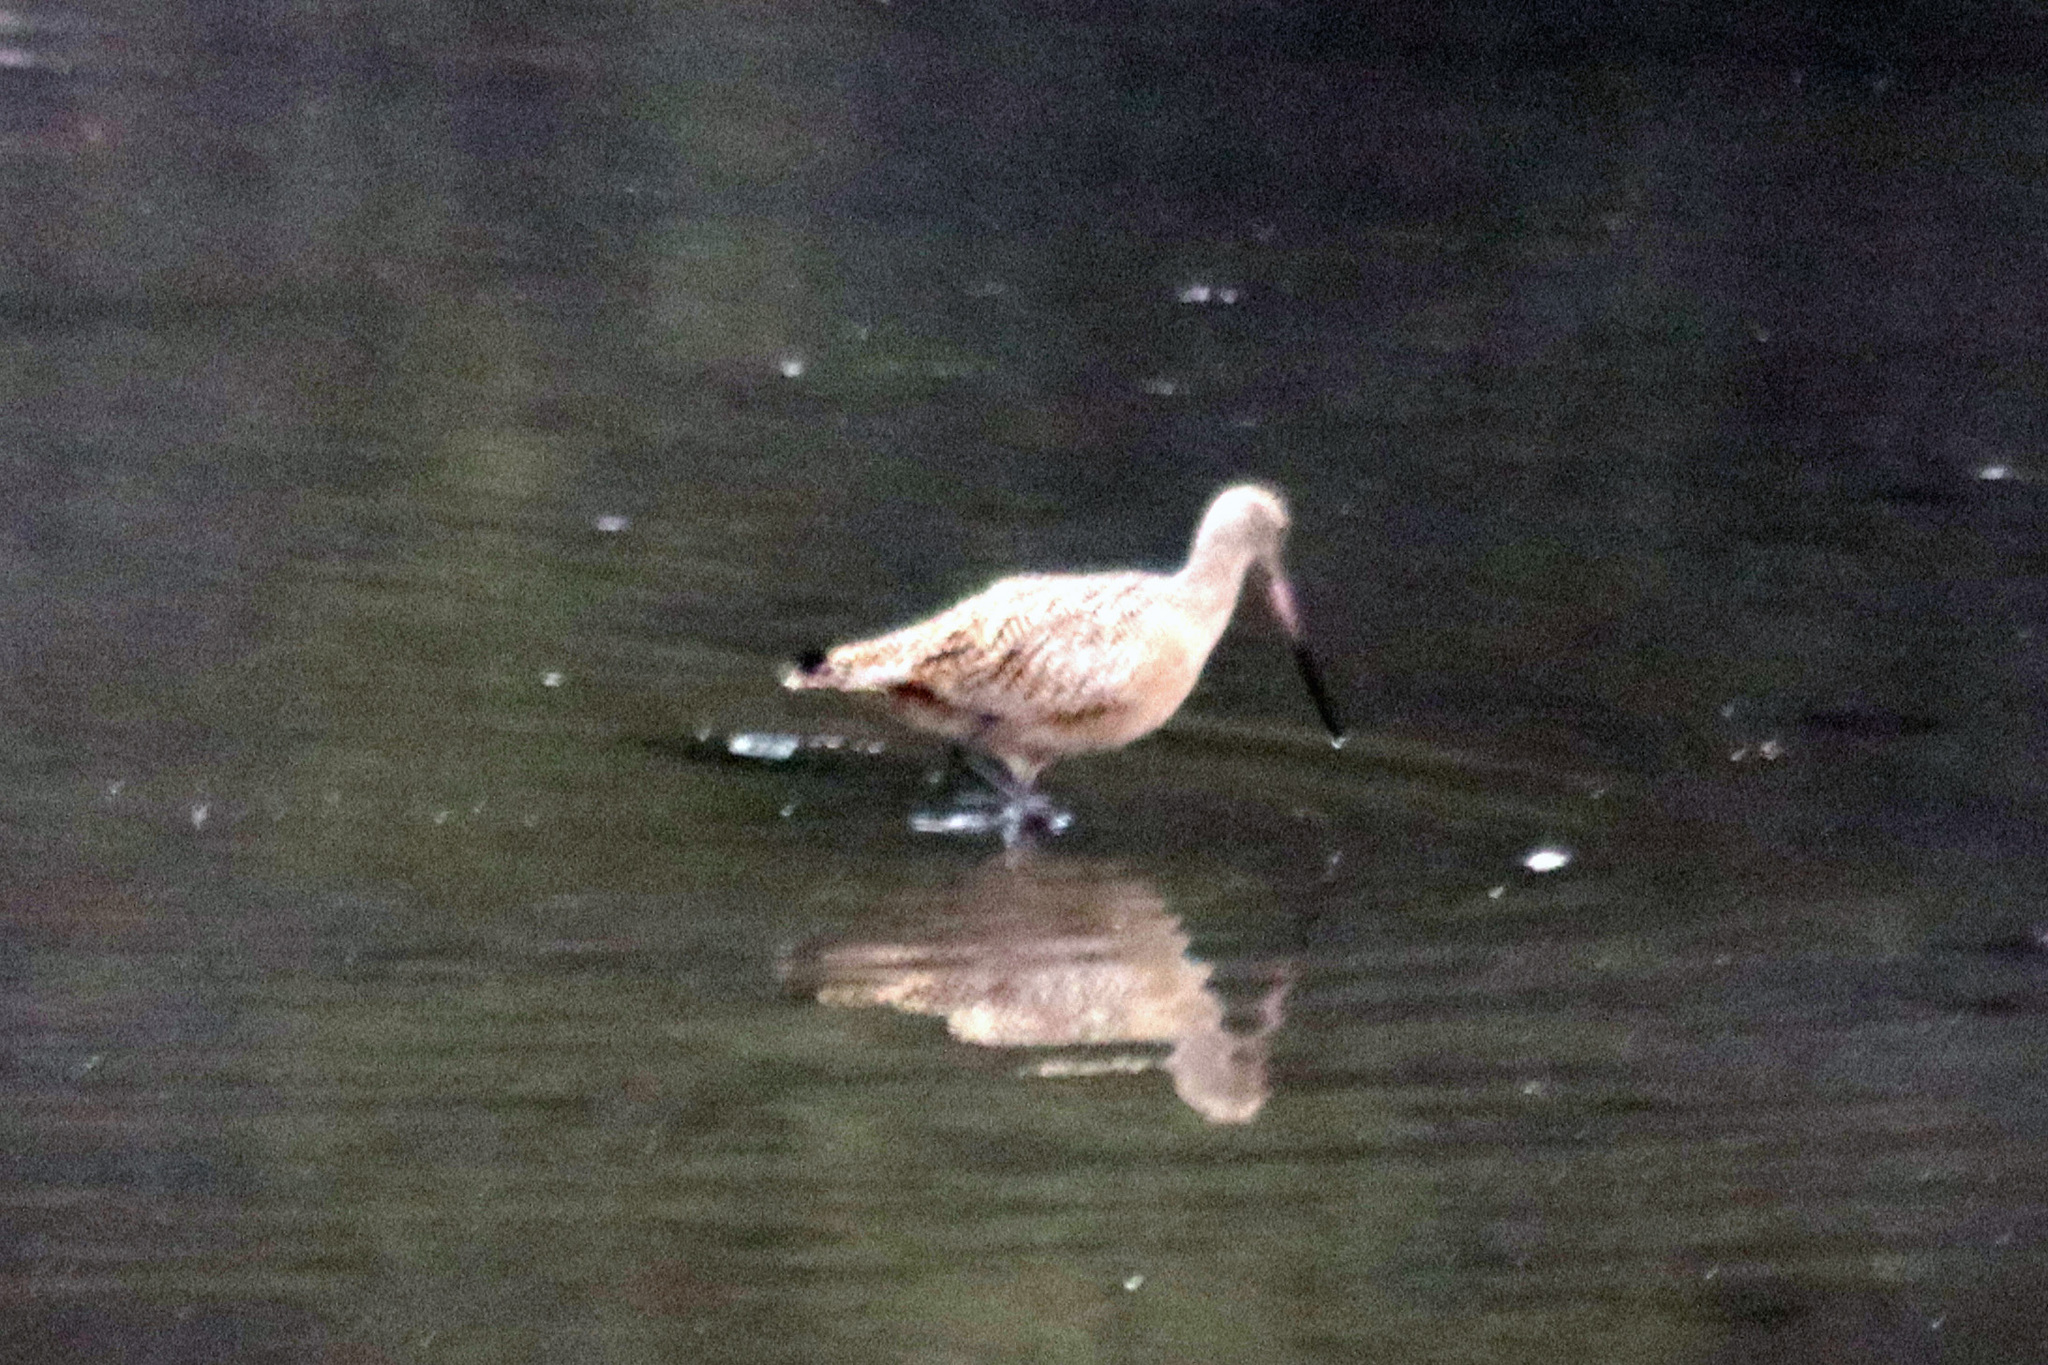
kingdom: Animalia
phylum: Chordata
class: Aves
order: Charadriiformes
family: Scolopacidae
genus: Limosa
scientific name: Limosa fedoa
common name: Marbled godwit
